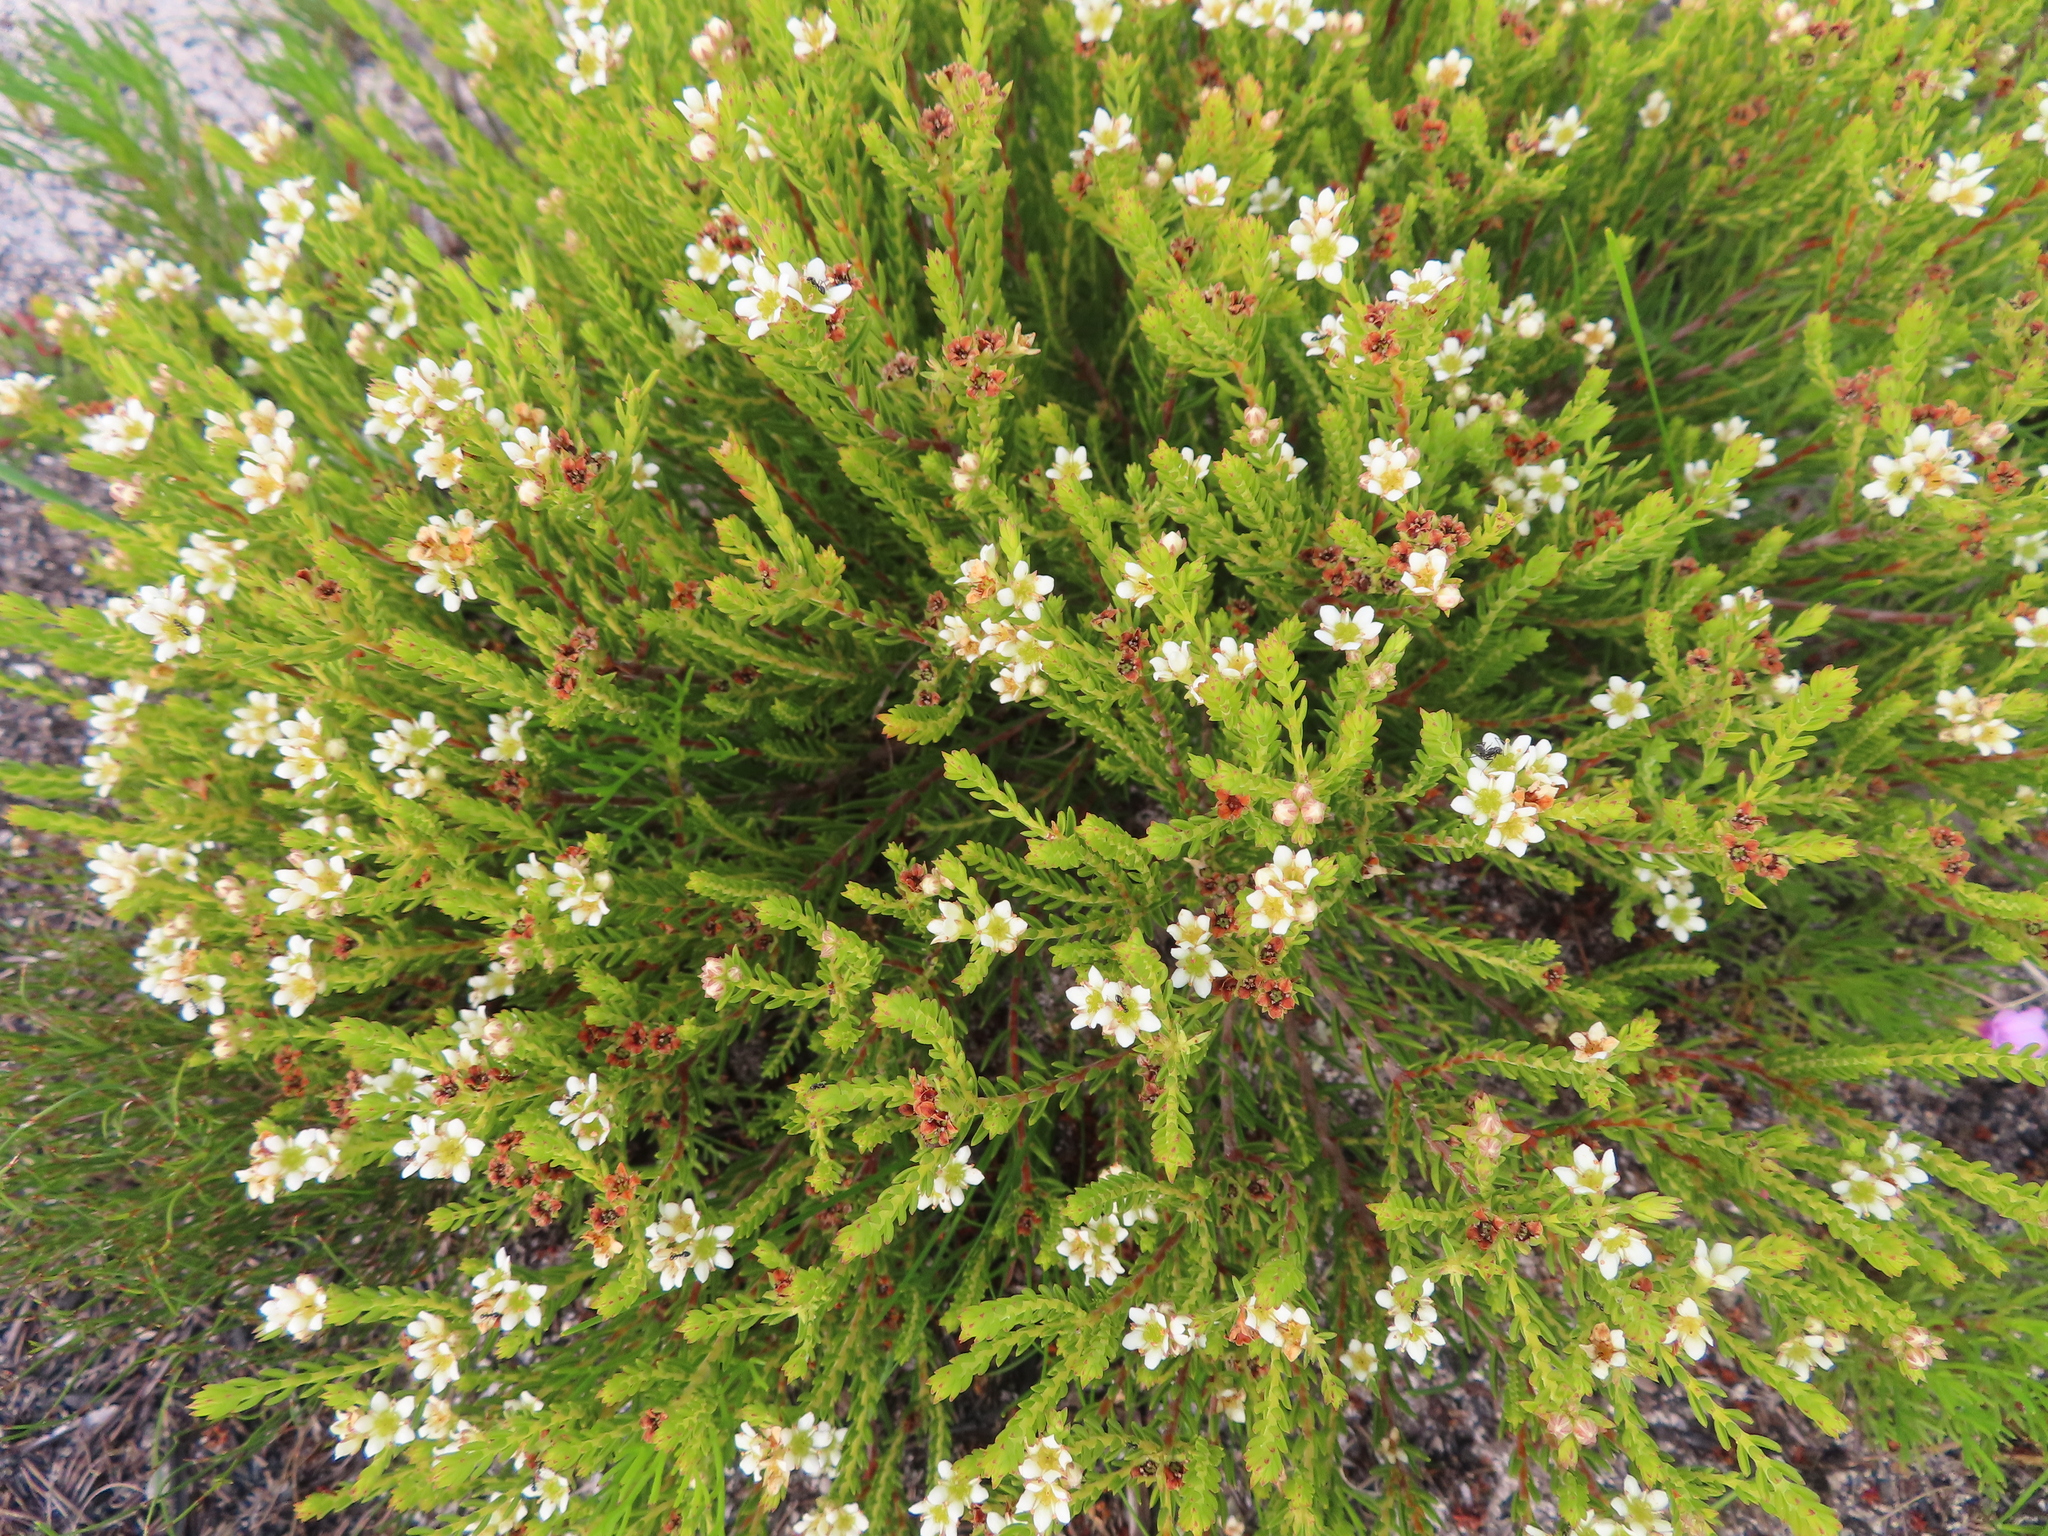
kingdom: Plantae
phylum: Tracheophyta
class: Magnoliopsida
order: Sapindales
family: Rutaceae
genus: Diosma
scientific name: Diosma oppositifolia
